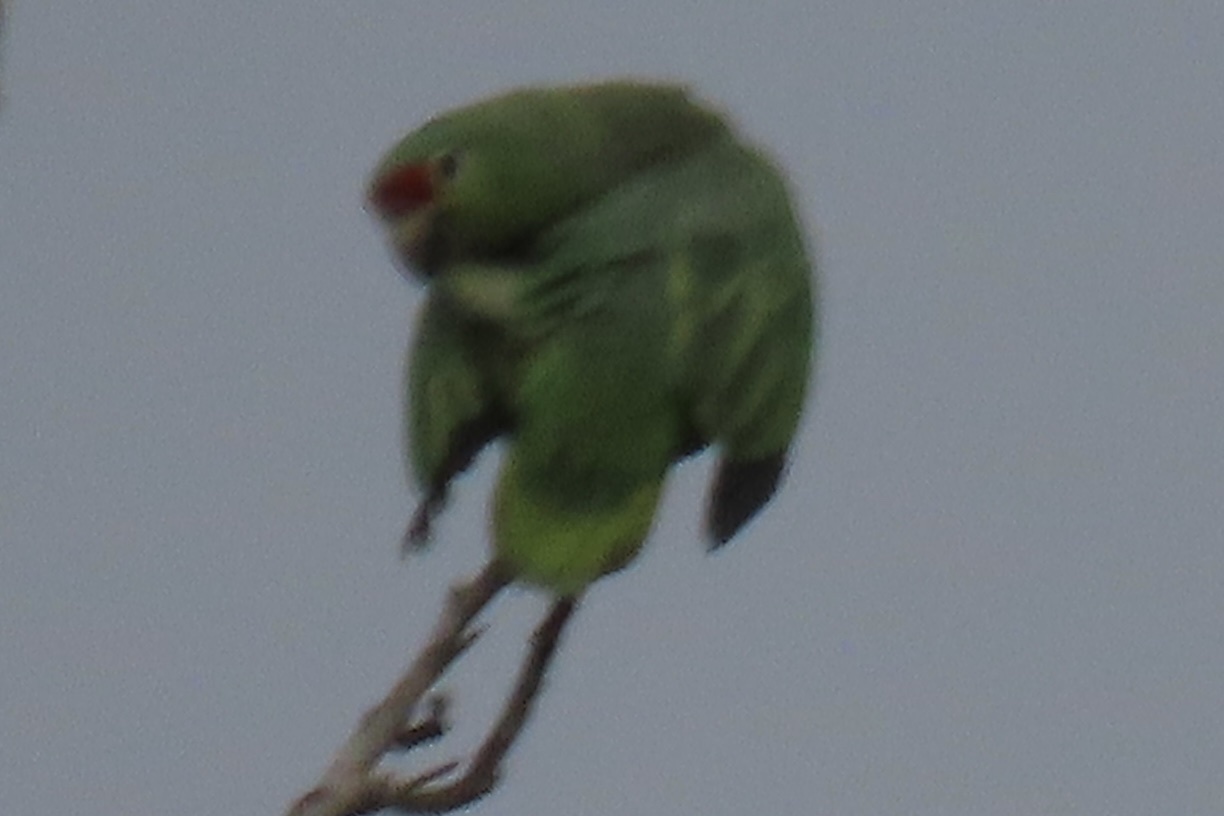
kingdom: Animalia
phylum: Chordata
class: Aves
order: Psittaciformes
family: Psittacidae
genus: Amazona
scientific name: Amazona autumnalis
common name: Red-lored amazon
